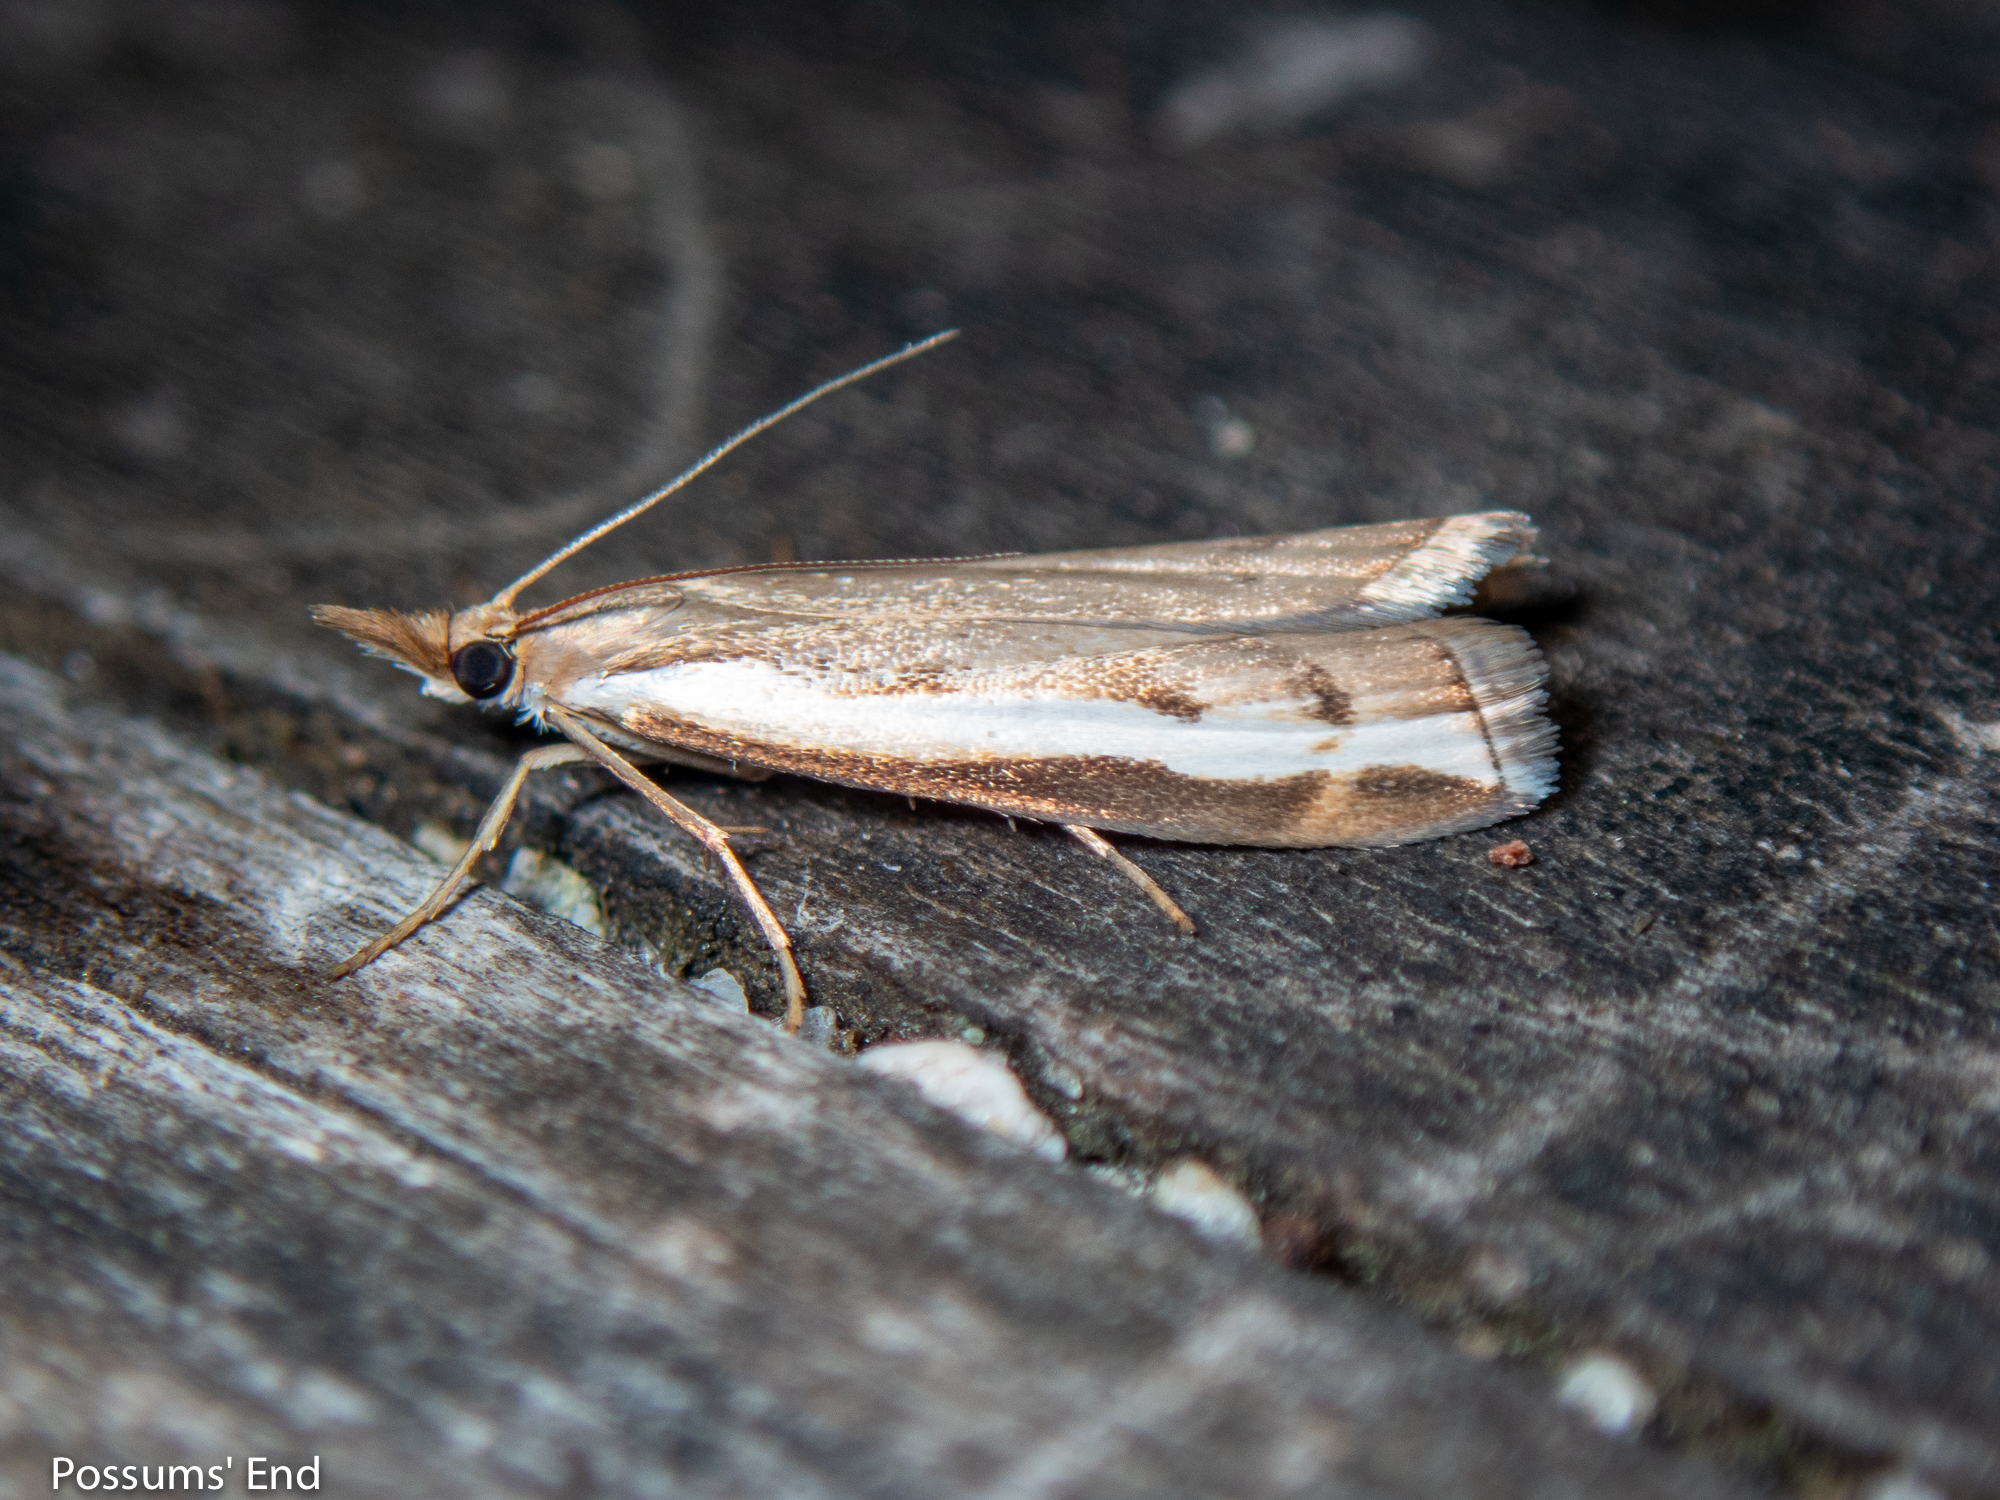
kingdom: Animalia
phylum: Arthropoda
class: Insecta
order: Lepidoptera
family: Crambidae
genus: Orocrambus
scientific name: Orocrambus flexuosellus
